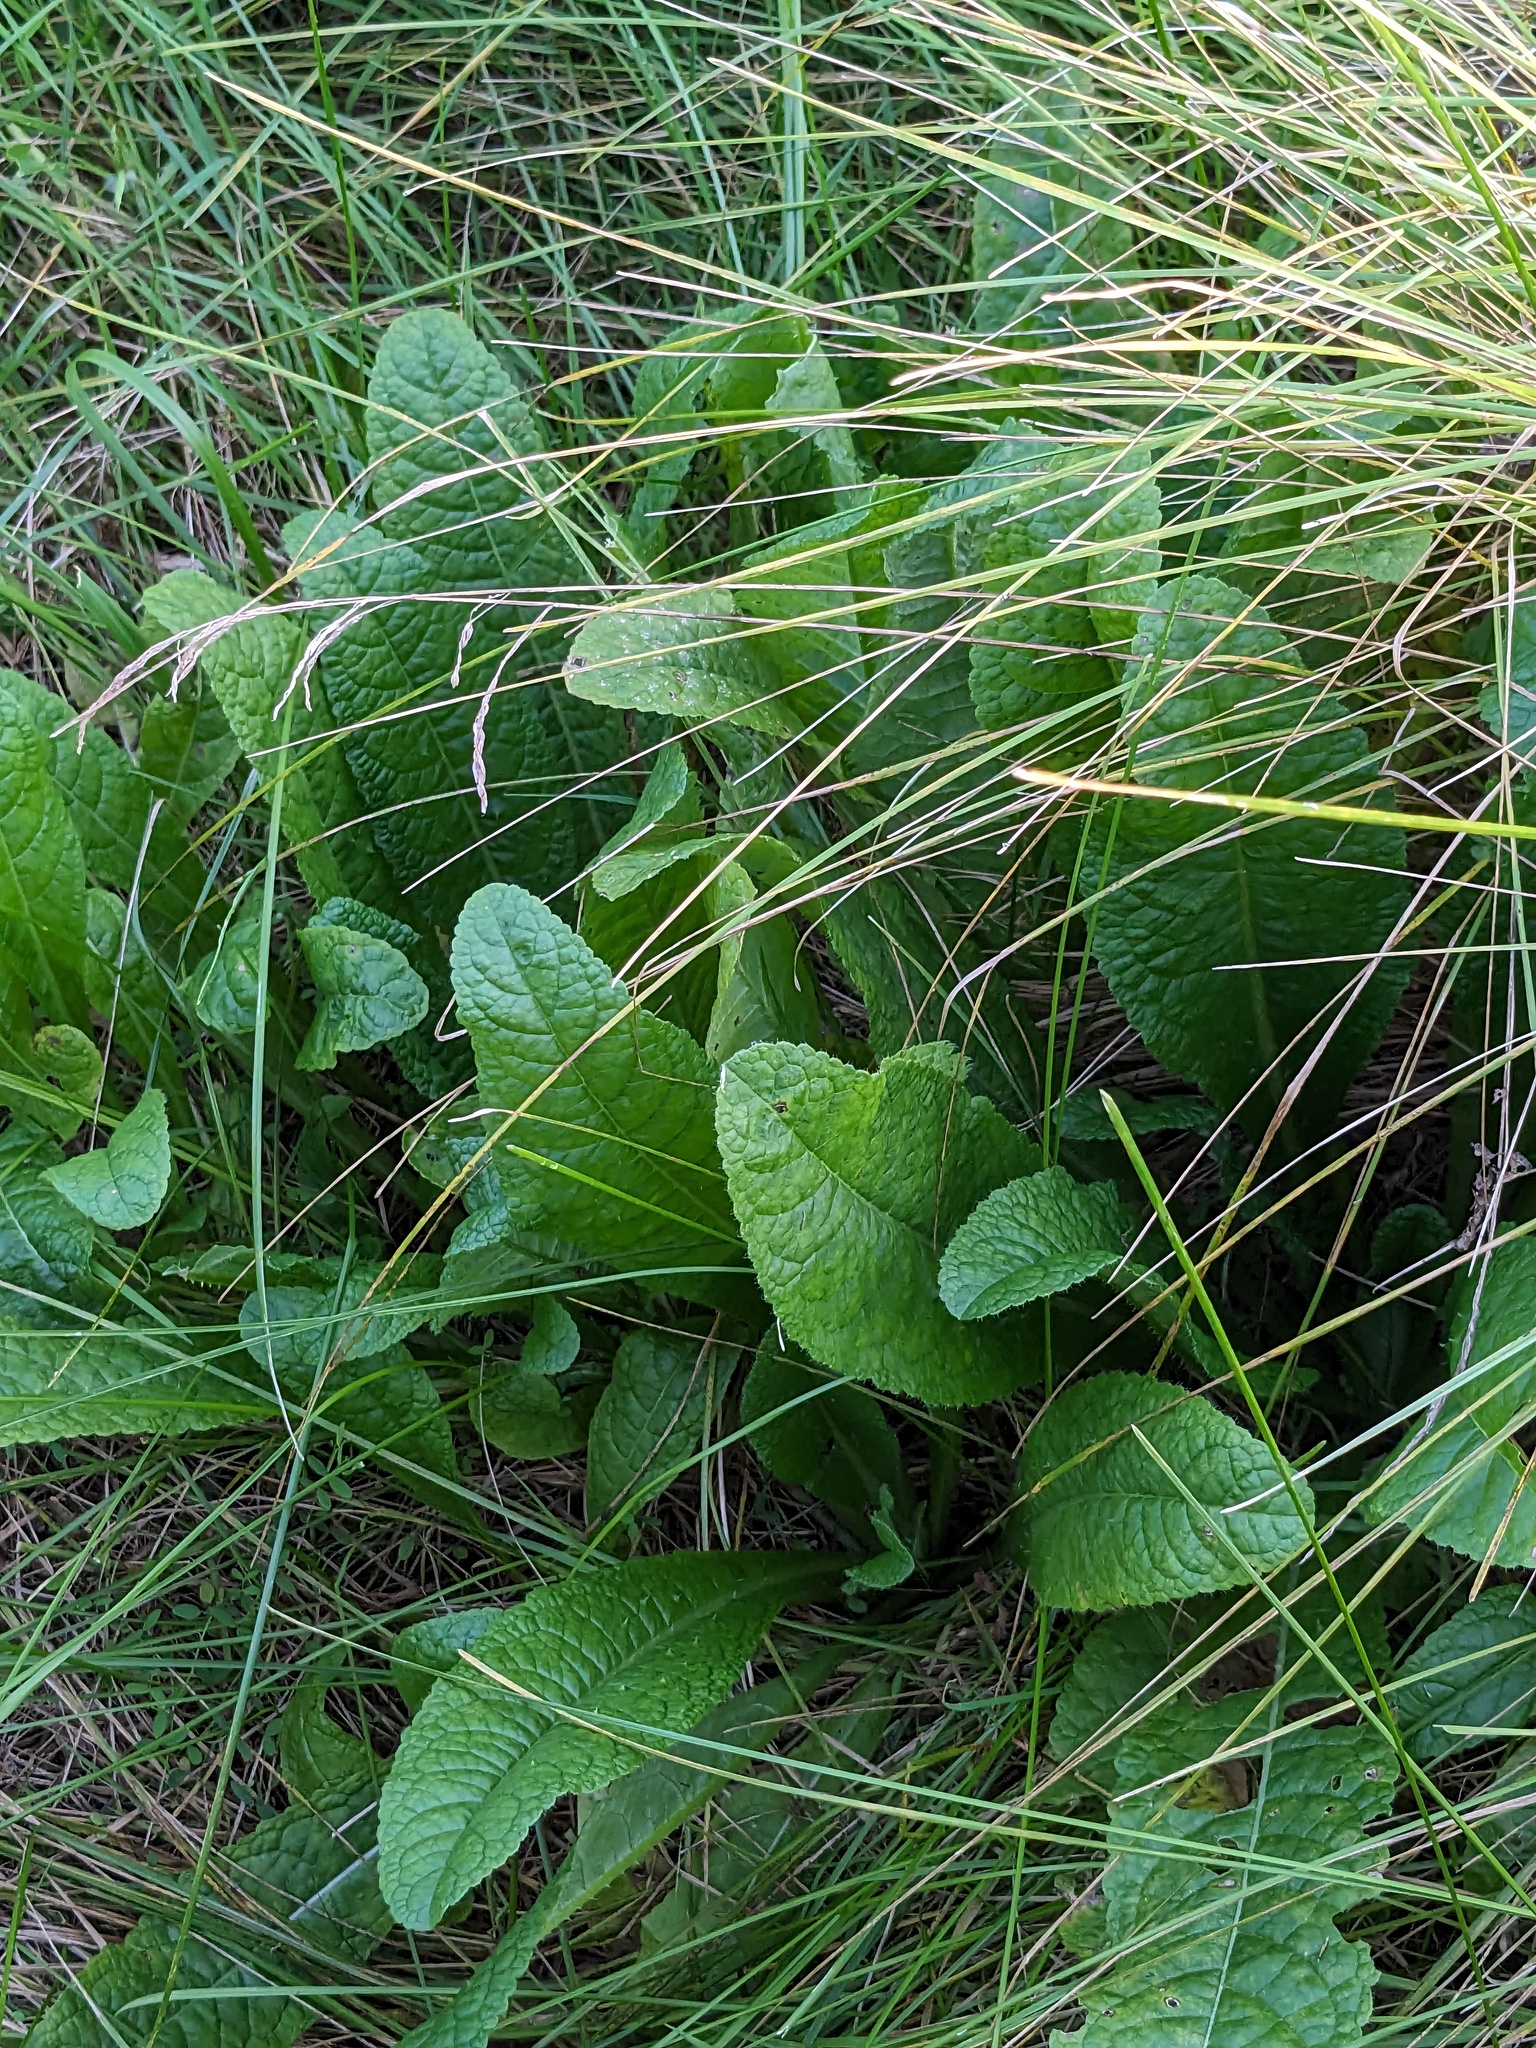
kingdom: Plantae
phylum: Tracheophyta
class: Magnoliopsida
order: Dipsacales
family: Caprifoliaceae
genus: Dipsacus
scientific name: Dipsacus fullonum
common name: Teasel
